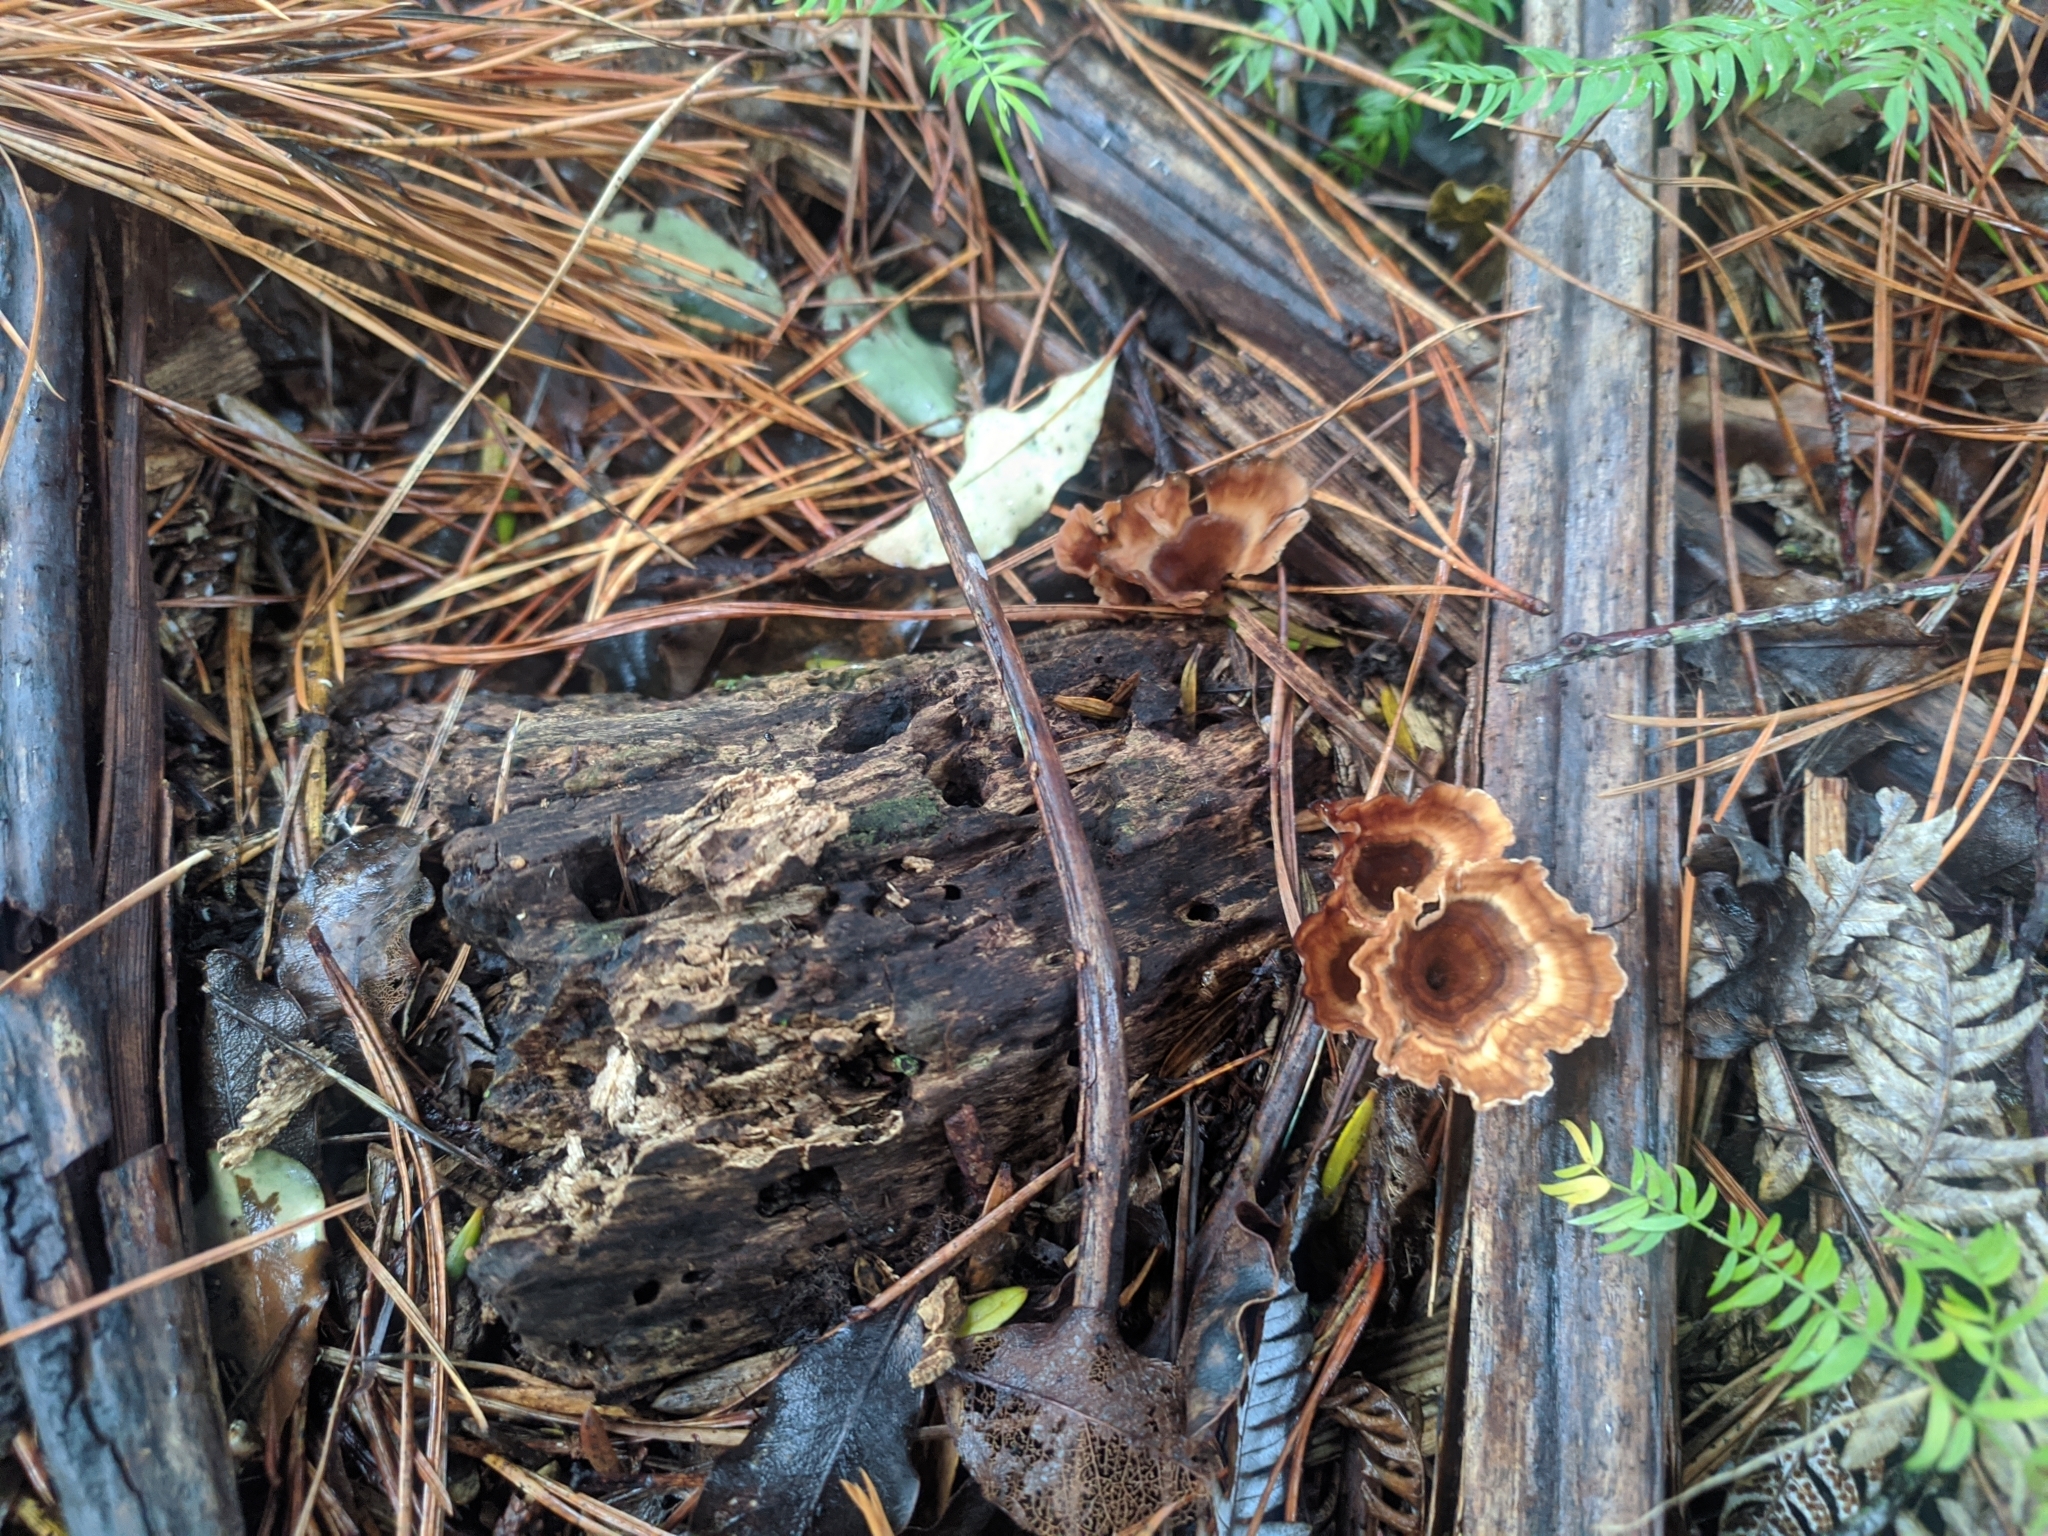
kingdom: Fungi
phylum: Basidiomycota
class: Agaricomycetes
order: Polyporales
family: Podoscyphaceae
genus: Podoscypha
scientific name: Podoscypha petalodes
